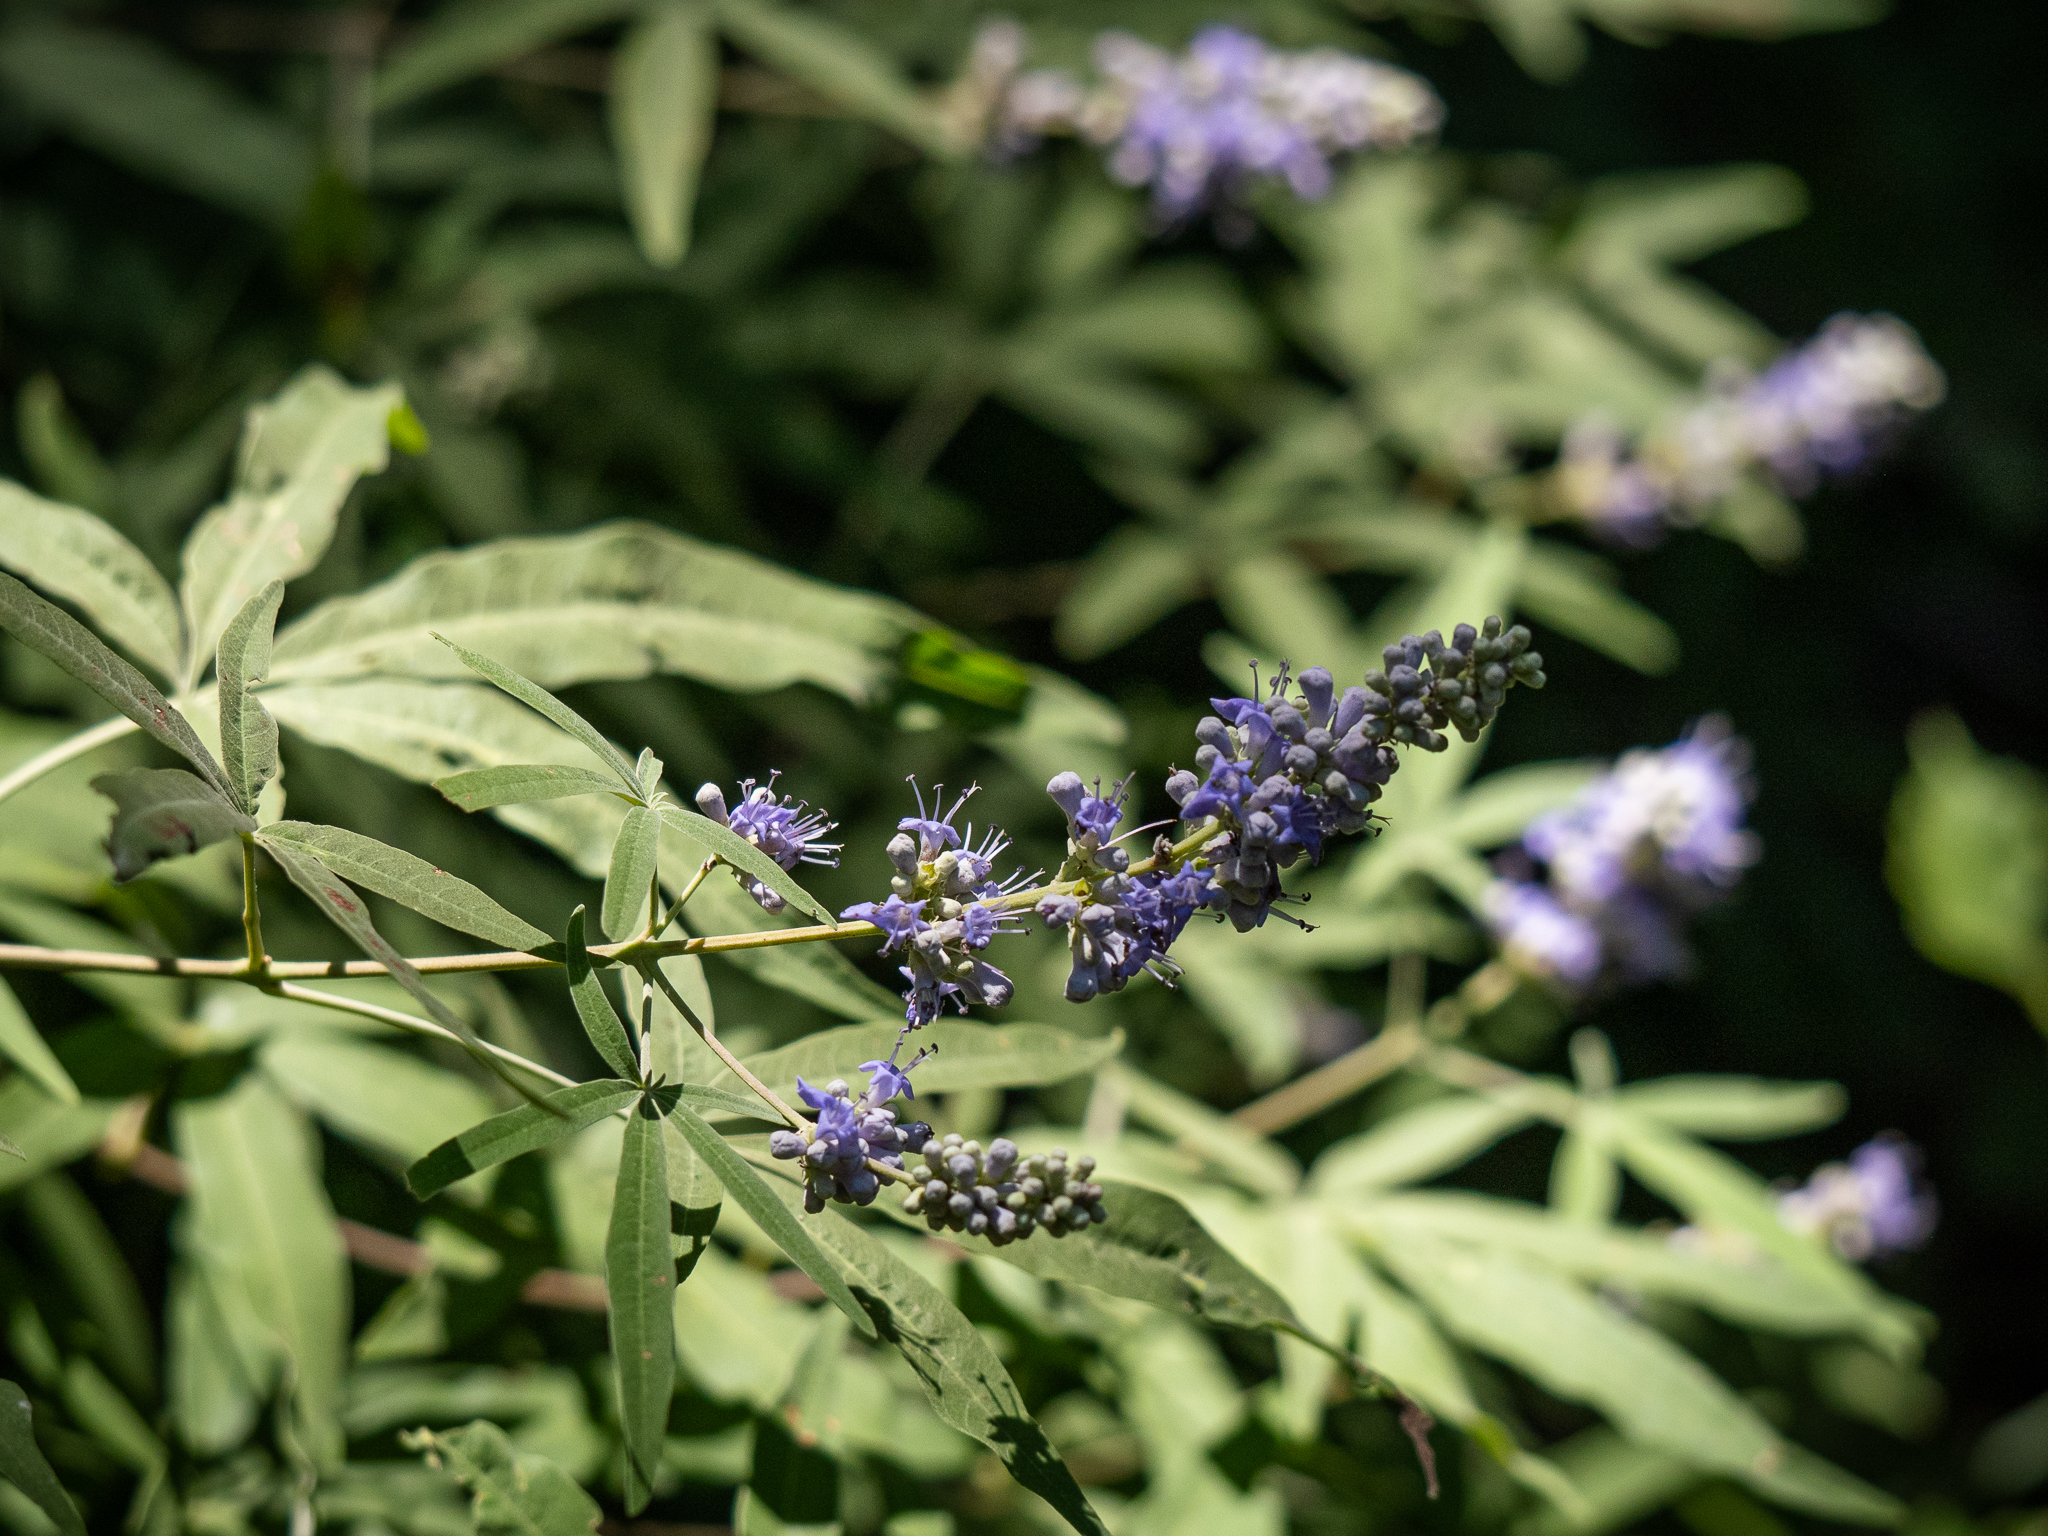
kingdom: Plantae
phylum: Tracheophyta
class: Magnoliopsida
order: Lamiales
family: Lamiaceae
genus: Vitex
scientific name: Vitex agnus-castus
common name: Chasteberry
